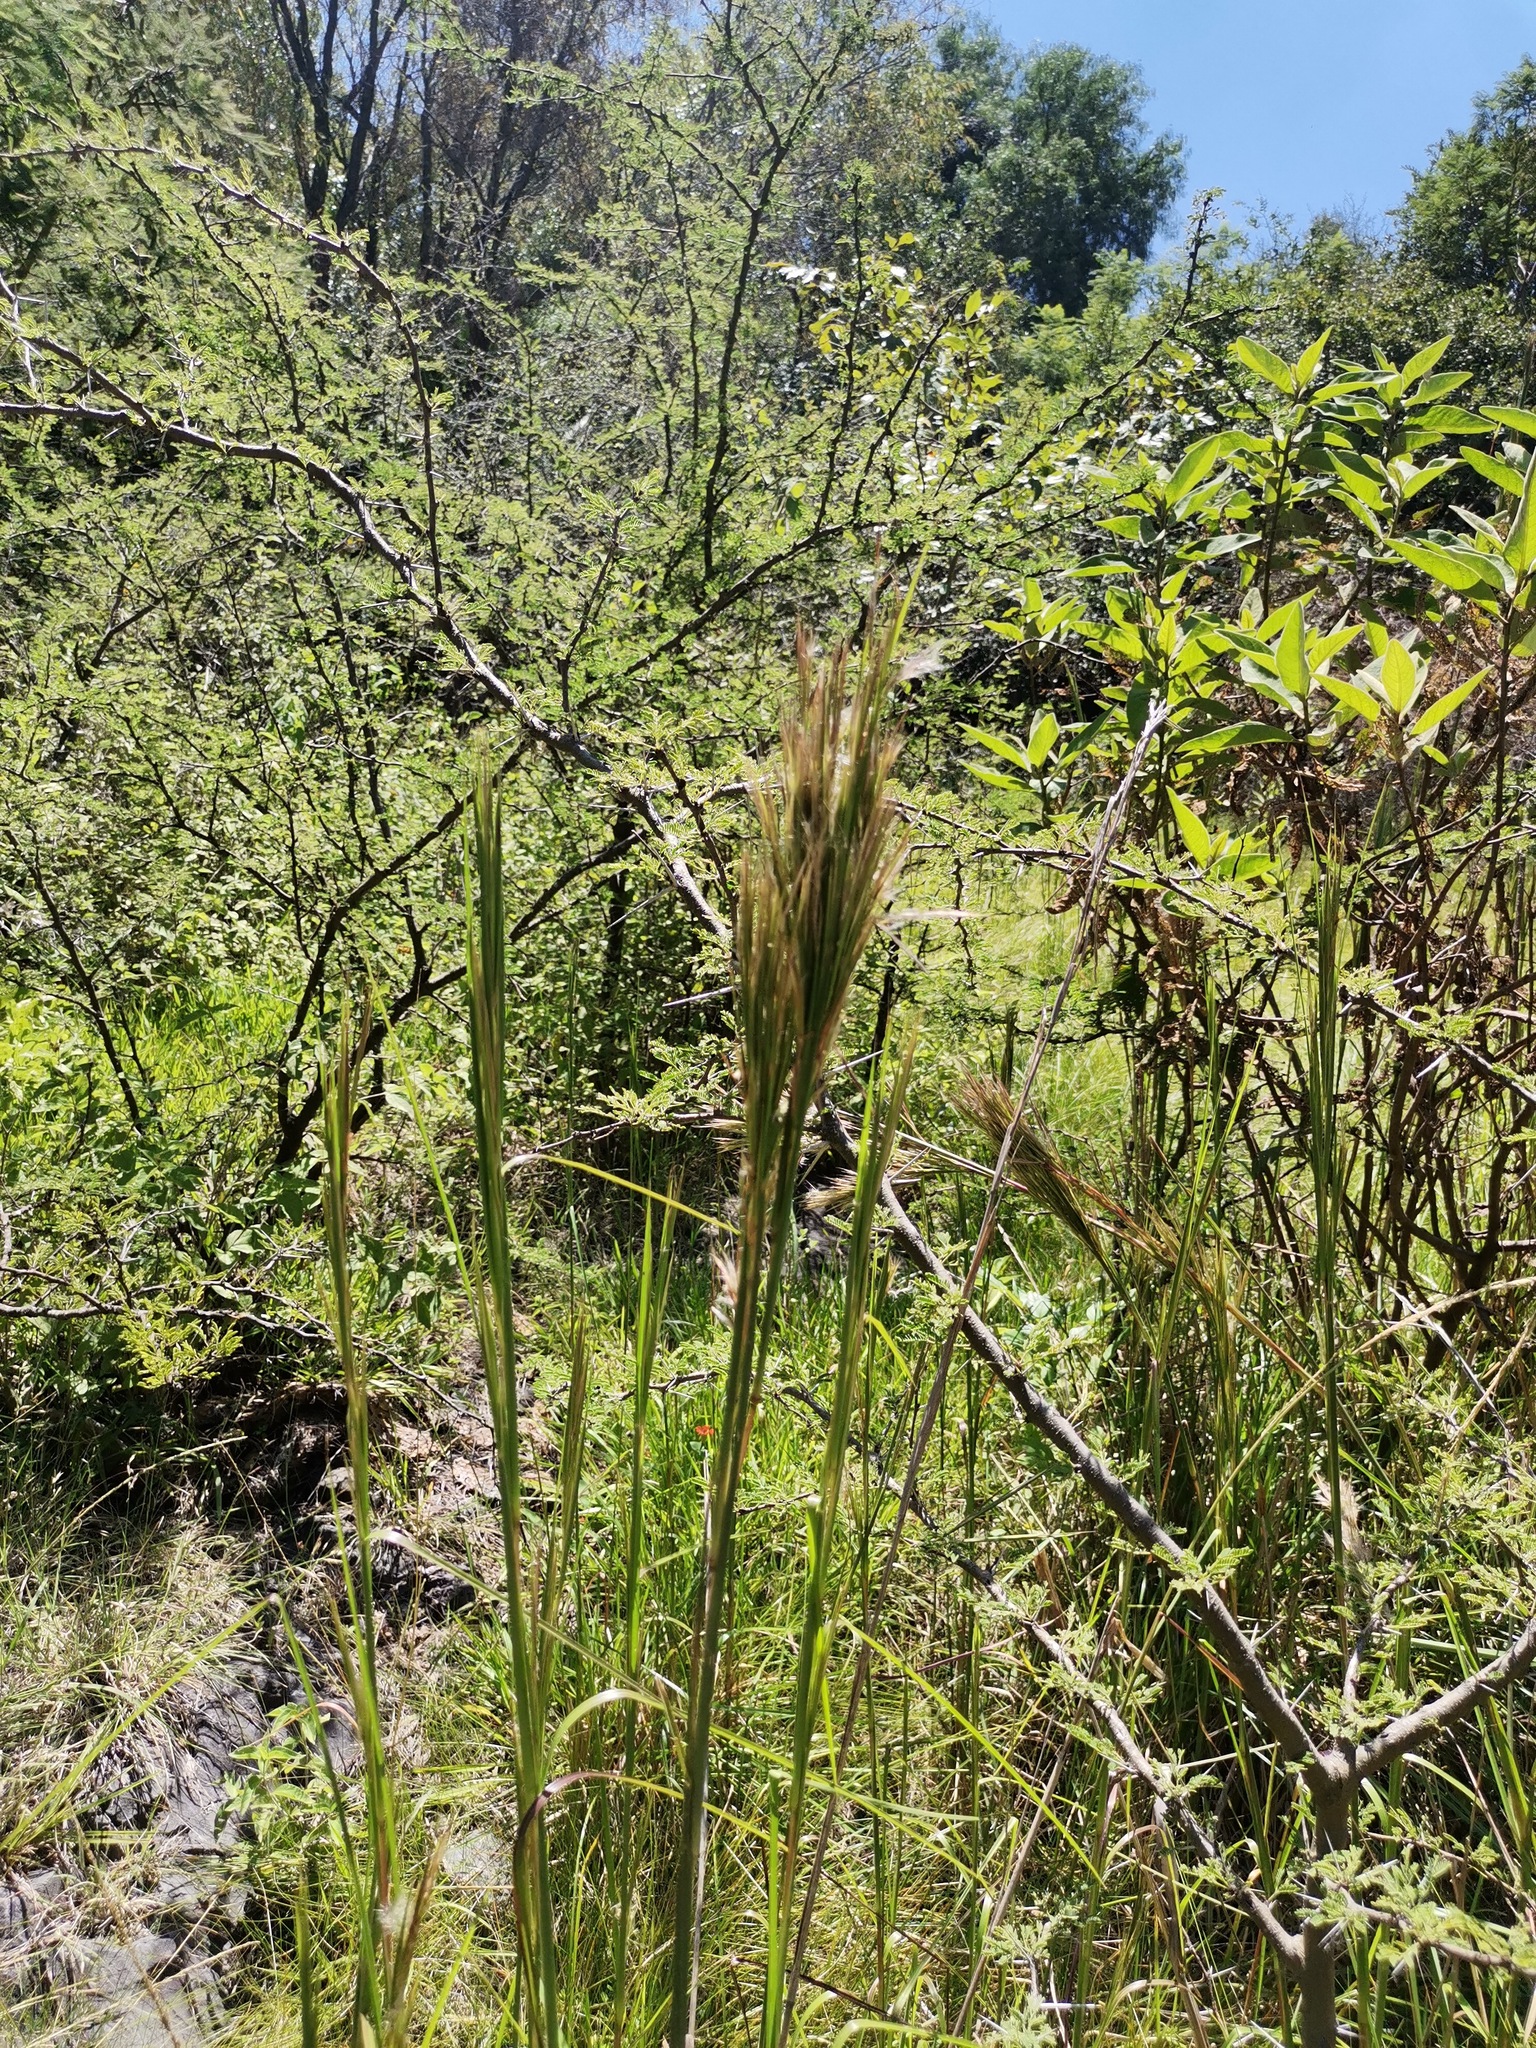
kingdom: Plantae
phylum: Tracheophyta
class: Liliopsida
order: Poales
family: Poaceae
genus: Andropogon
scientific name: Andropogon bicornis
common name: West indian foxtail grass
